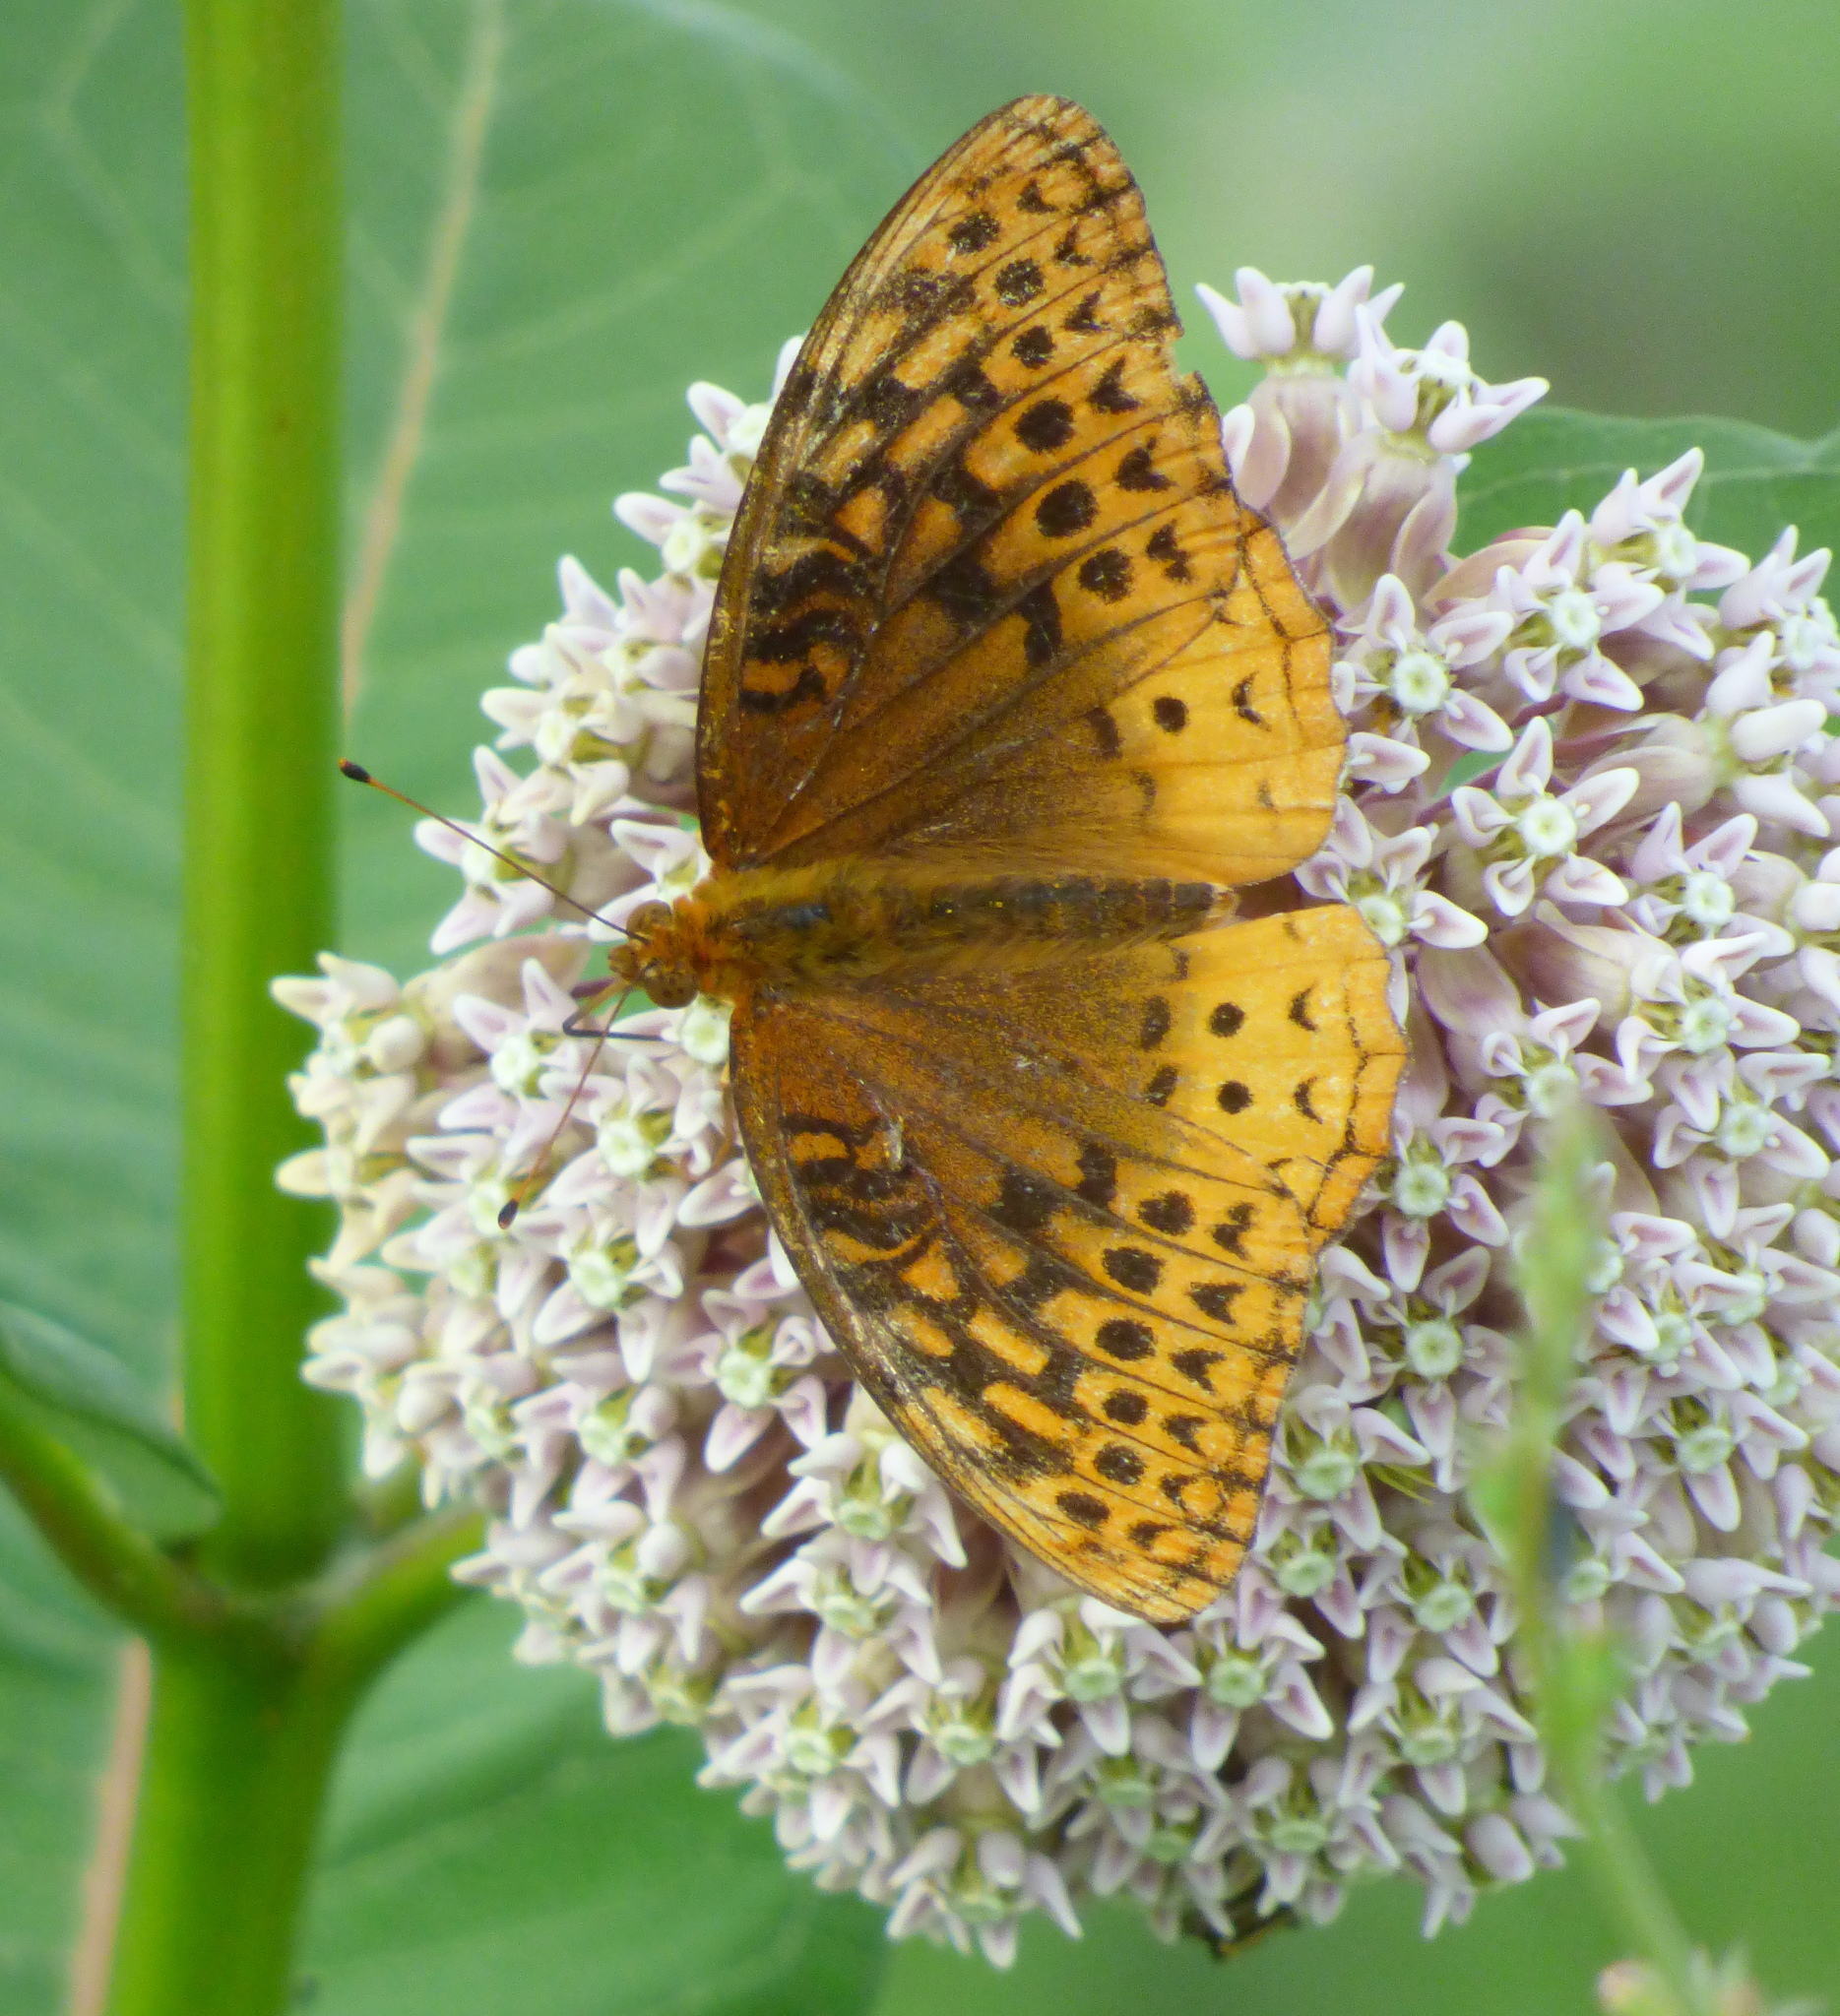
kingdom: Animalia
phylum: Arthropoda
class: Insecta
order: Lepidoptera
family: Nymphalidae
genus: Speyeria
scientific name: Speyeria cybele
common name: Great spangled fritillary
